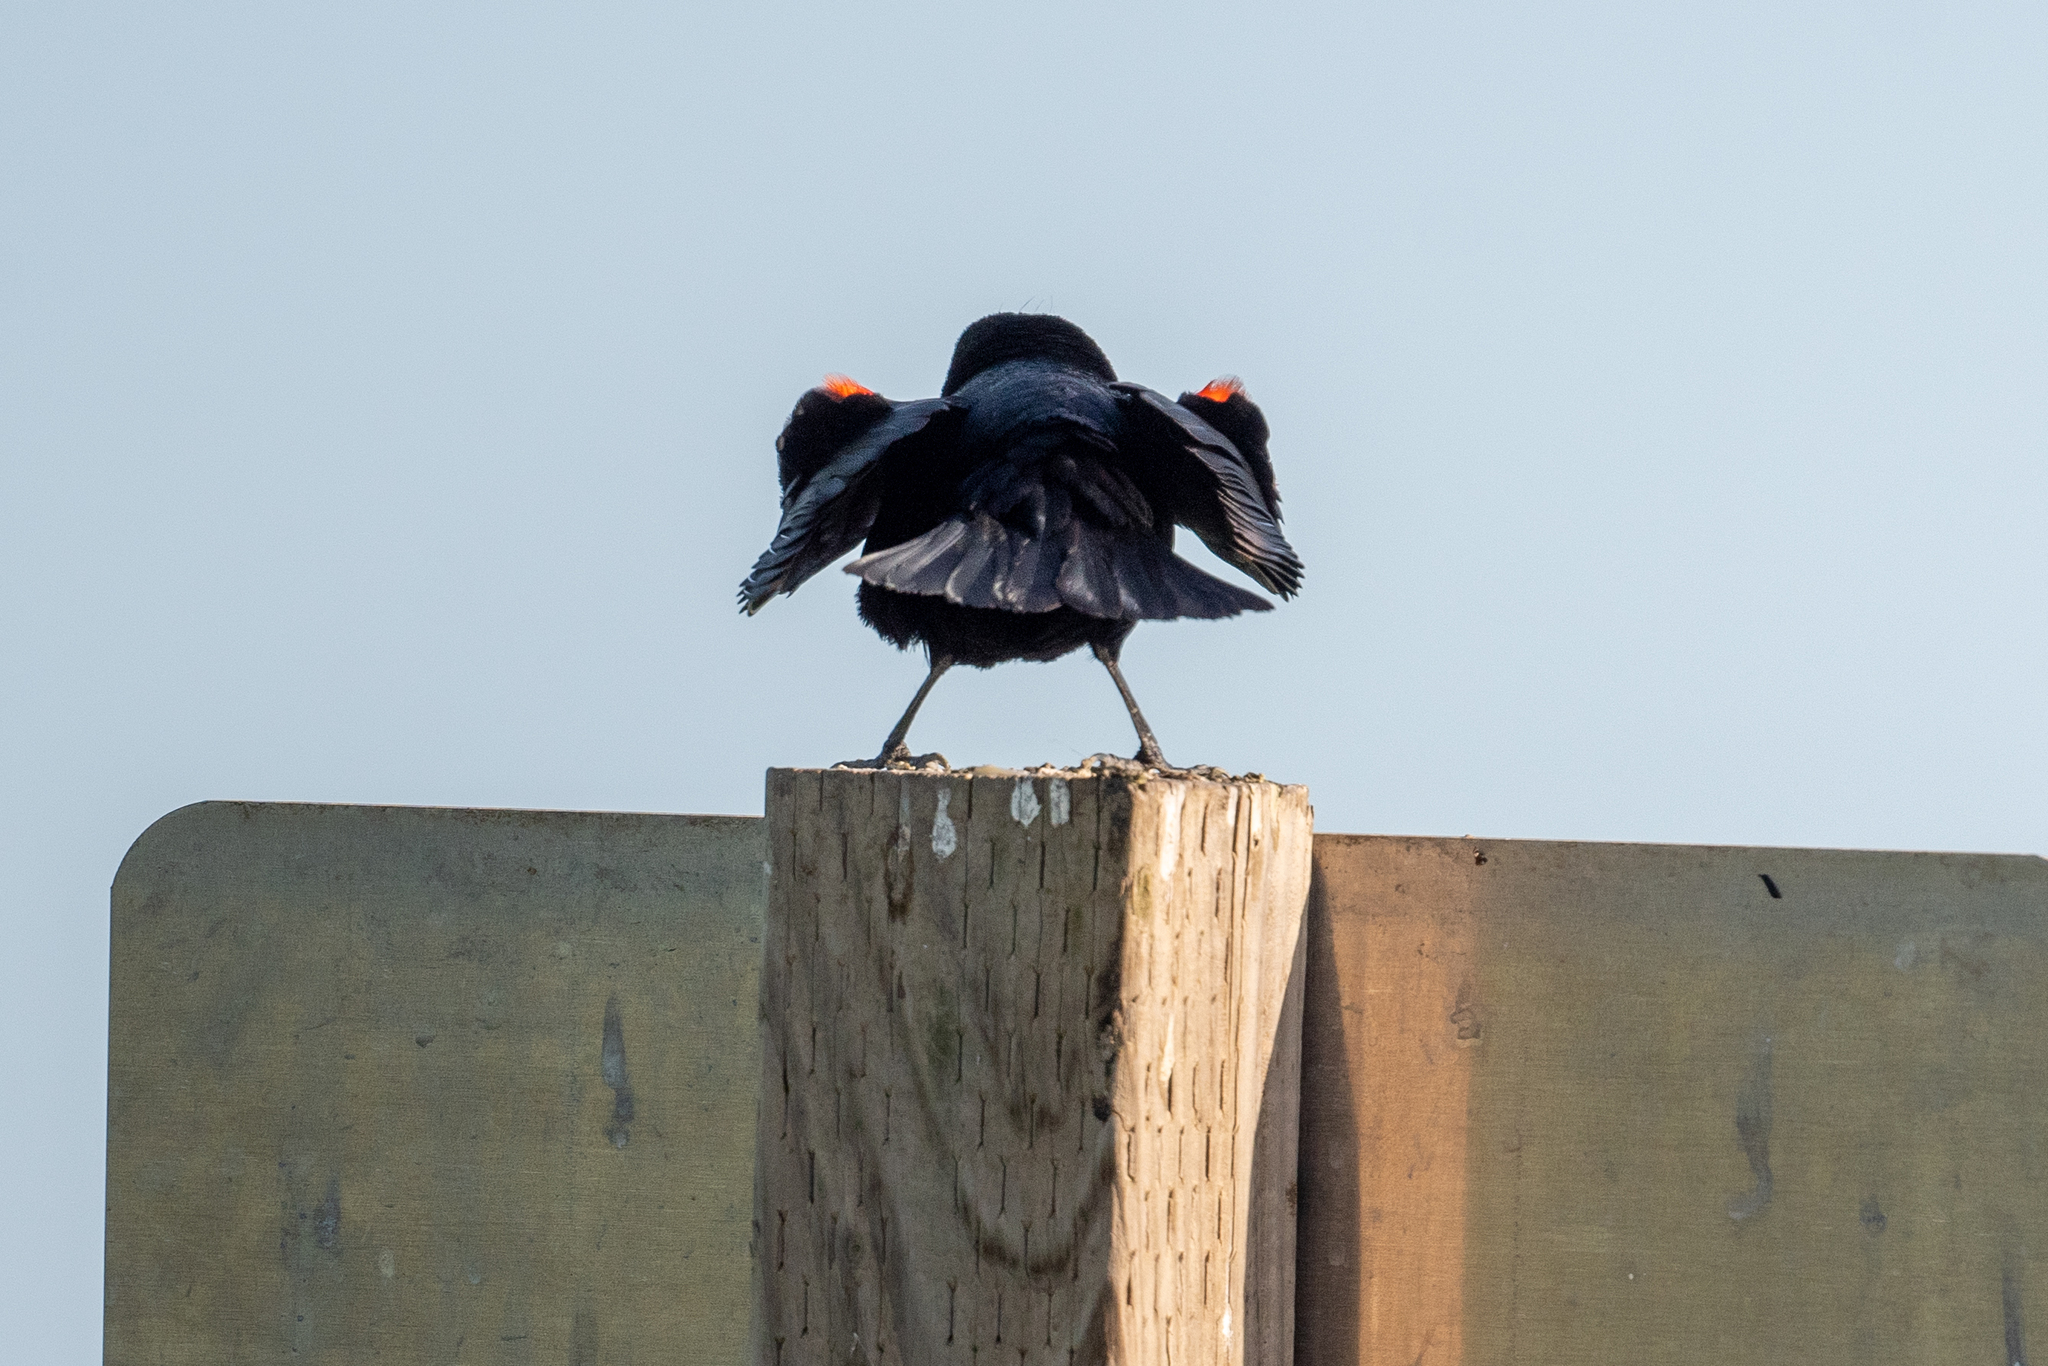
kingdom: Animalia
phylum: Chordata
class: Aves
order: Passeriformes
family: Icteridae
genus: Agelaius
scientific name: Agelaius phoeniceus
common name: Red-winged blackbird
